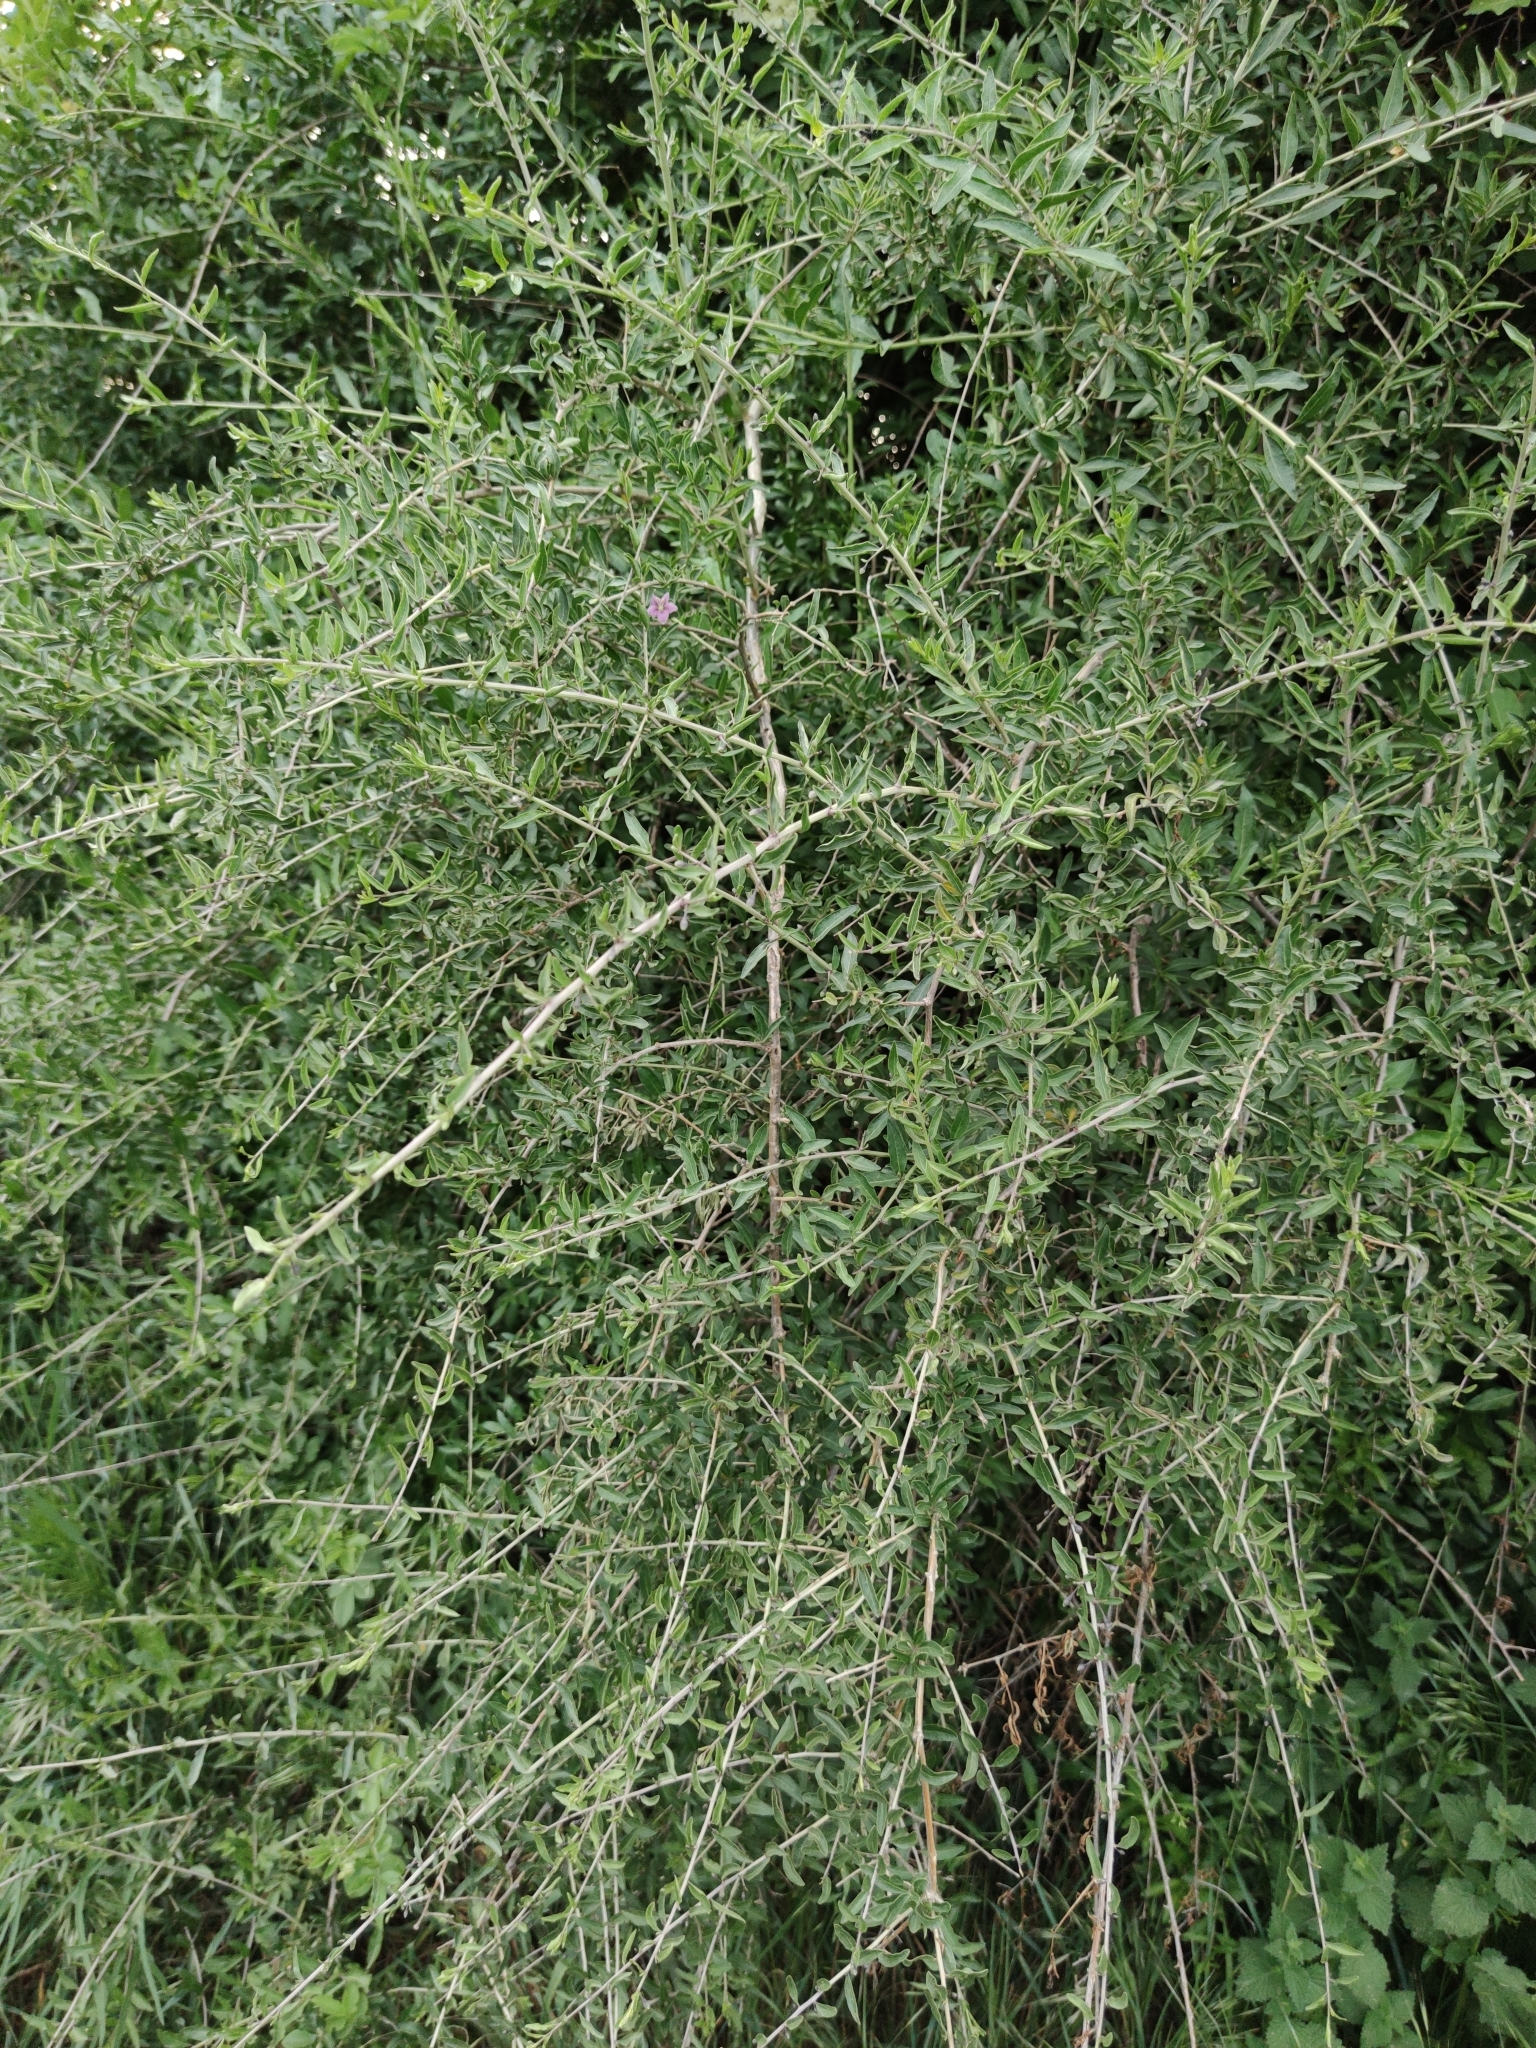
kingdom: Plantae
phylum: Tracheophyta
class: Magnoliopsida
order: Solanales
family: Solanaceae
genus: Lycium
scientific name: Lycium barbarum
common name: Duke of argyll's teaplant
